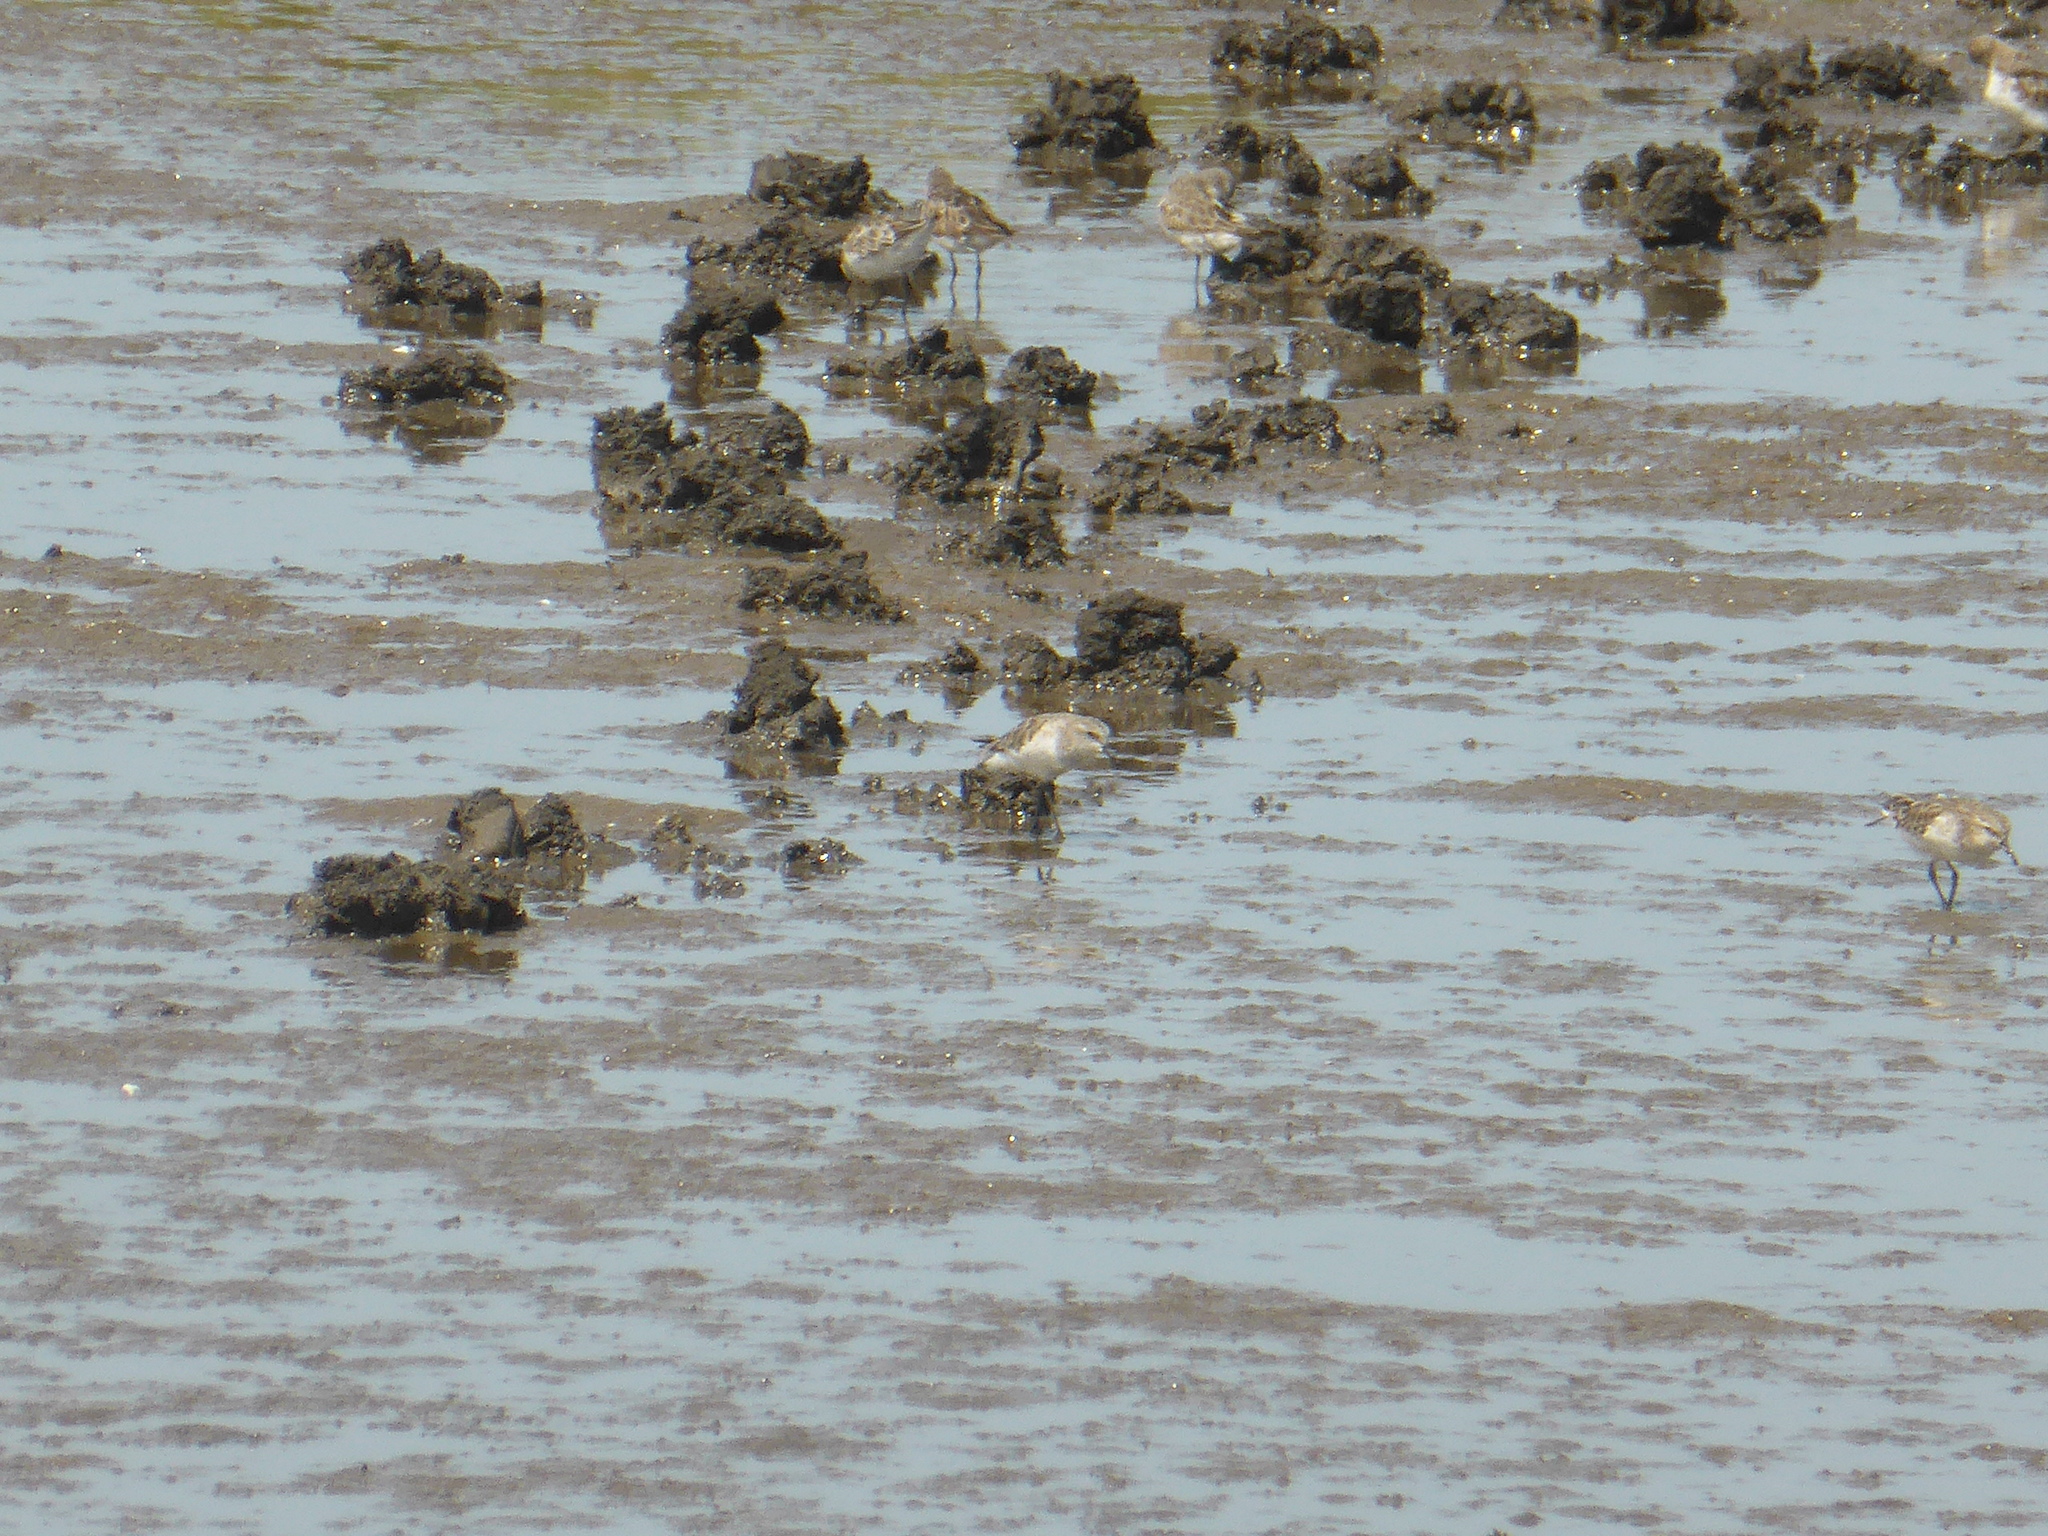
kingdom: Animalia
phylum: Chordata
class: Aves
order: Charadriiformes
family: Scolopacidae
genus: Calidris
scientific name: Calidris minuta
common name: Little stint
